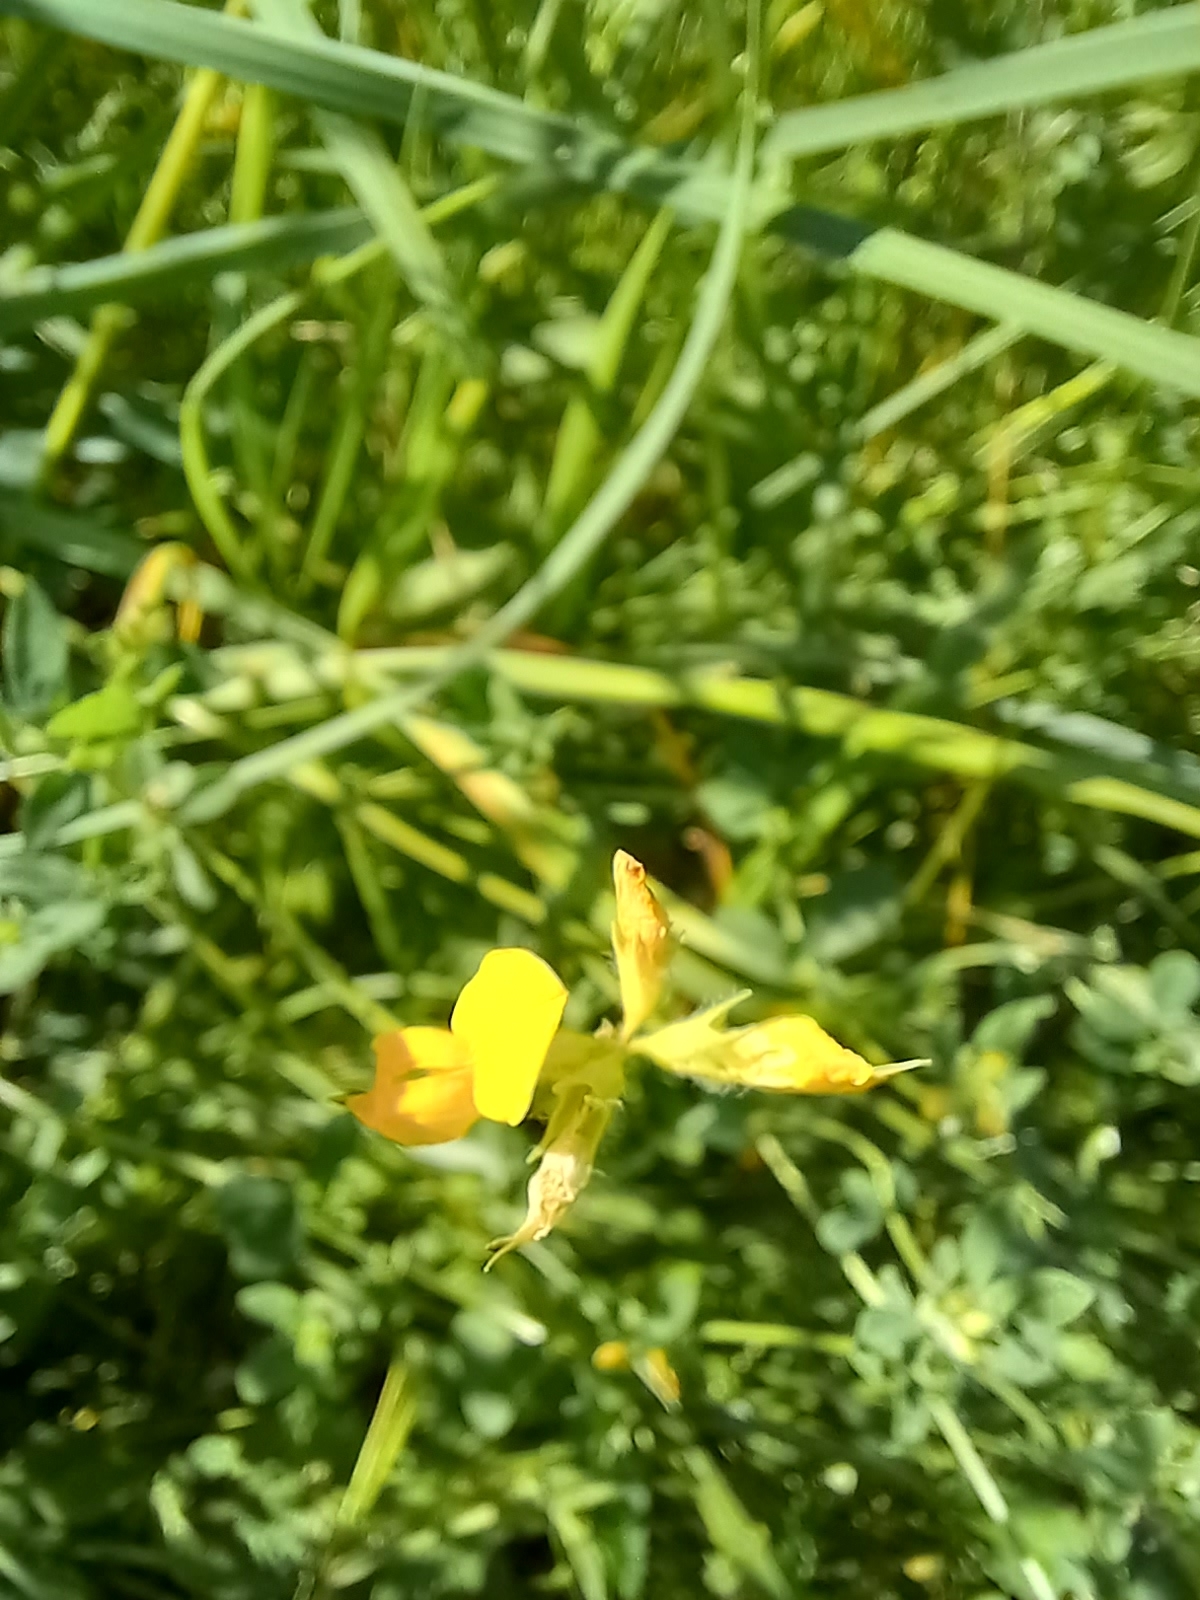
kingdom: Plantae
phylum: Tracheophyta
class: Magnoliopsida
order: Fabales
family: Fabaceae
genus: Lotus
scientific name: Lotus corniculatus
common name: Common bird's-foot-trefoil
